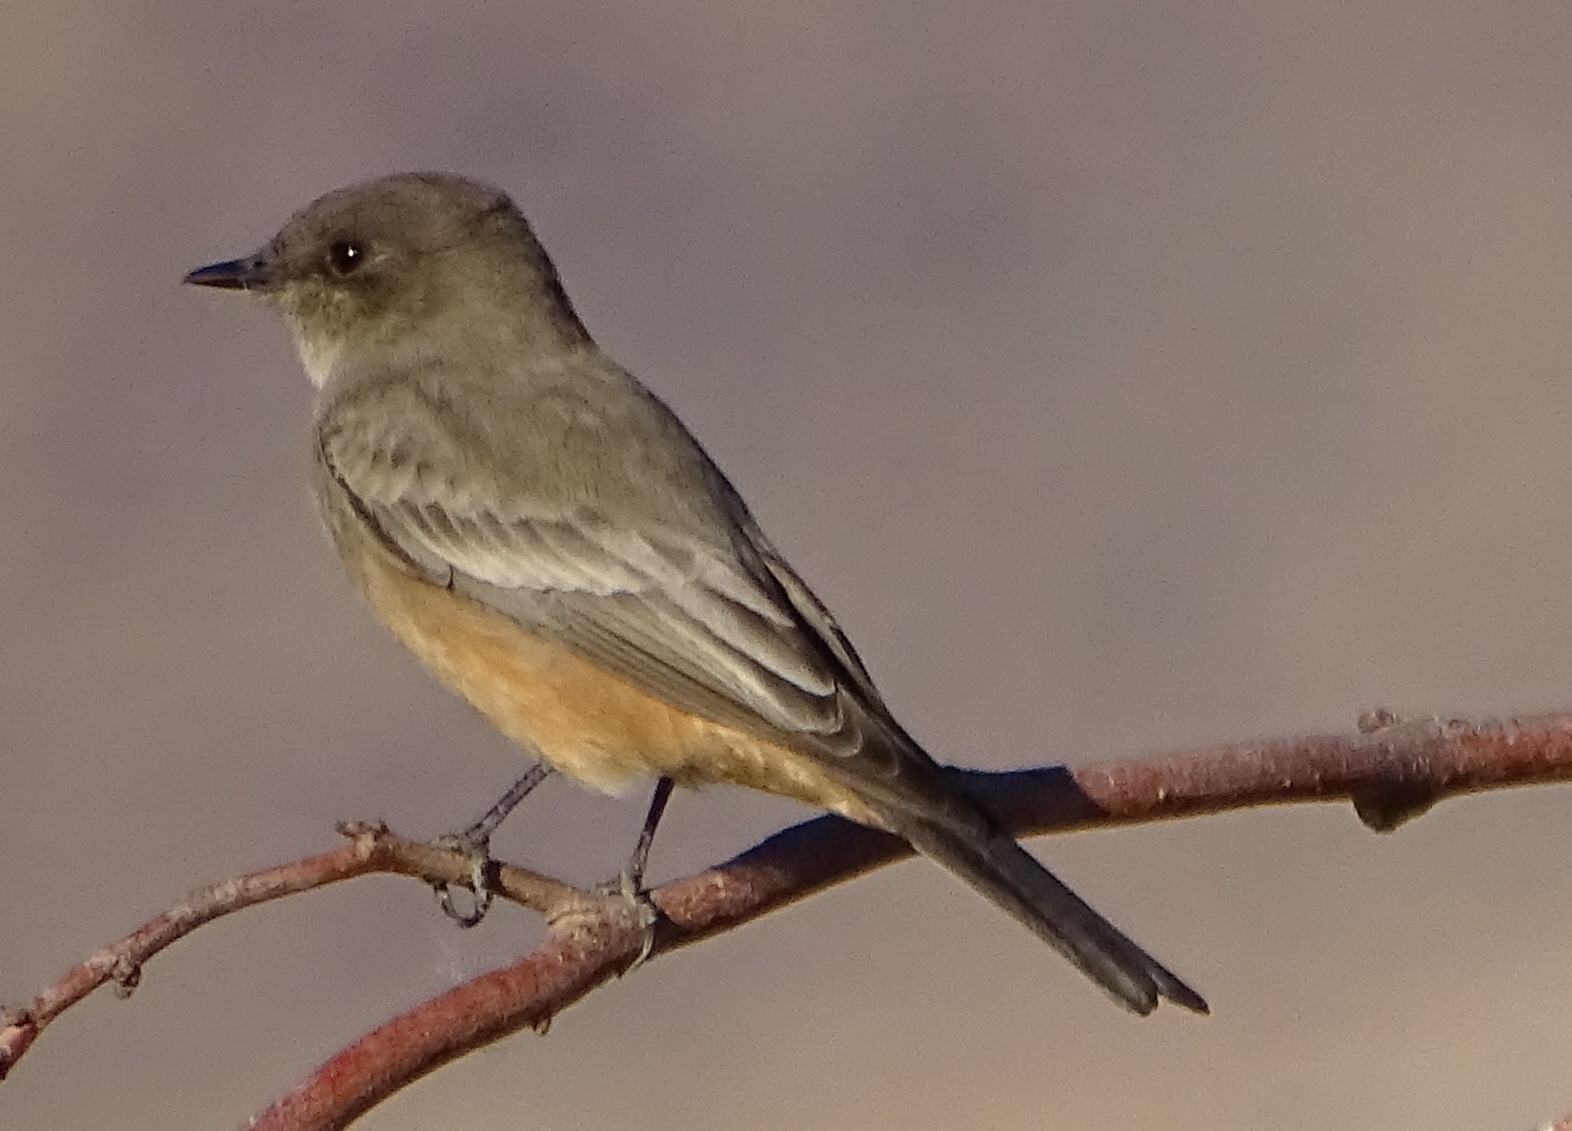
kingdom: Animalia
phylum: Chordata
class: Aves
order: Passeriformes
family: Tyrannidae
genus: Sayornis
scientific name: Sayornis saya
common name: Say's phoebe
